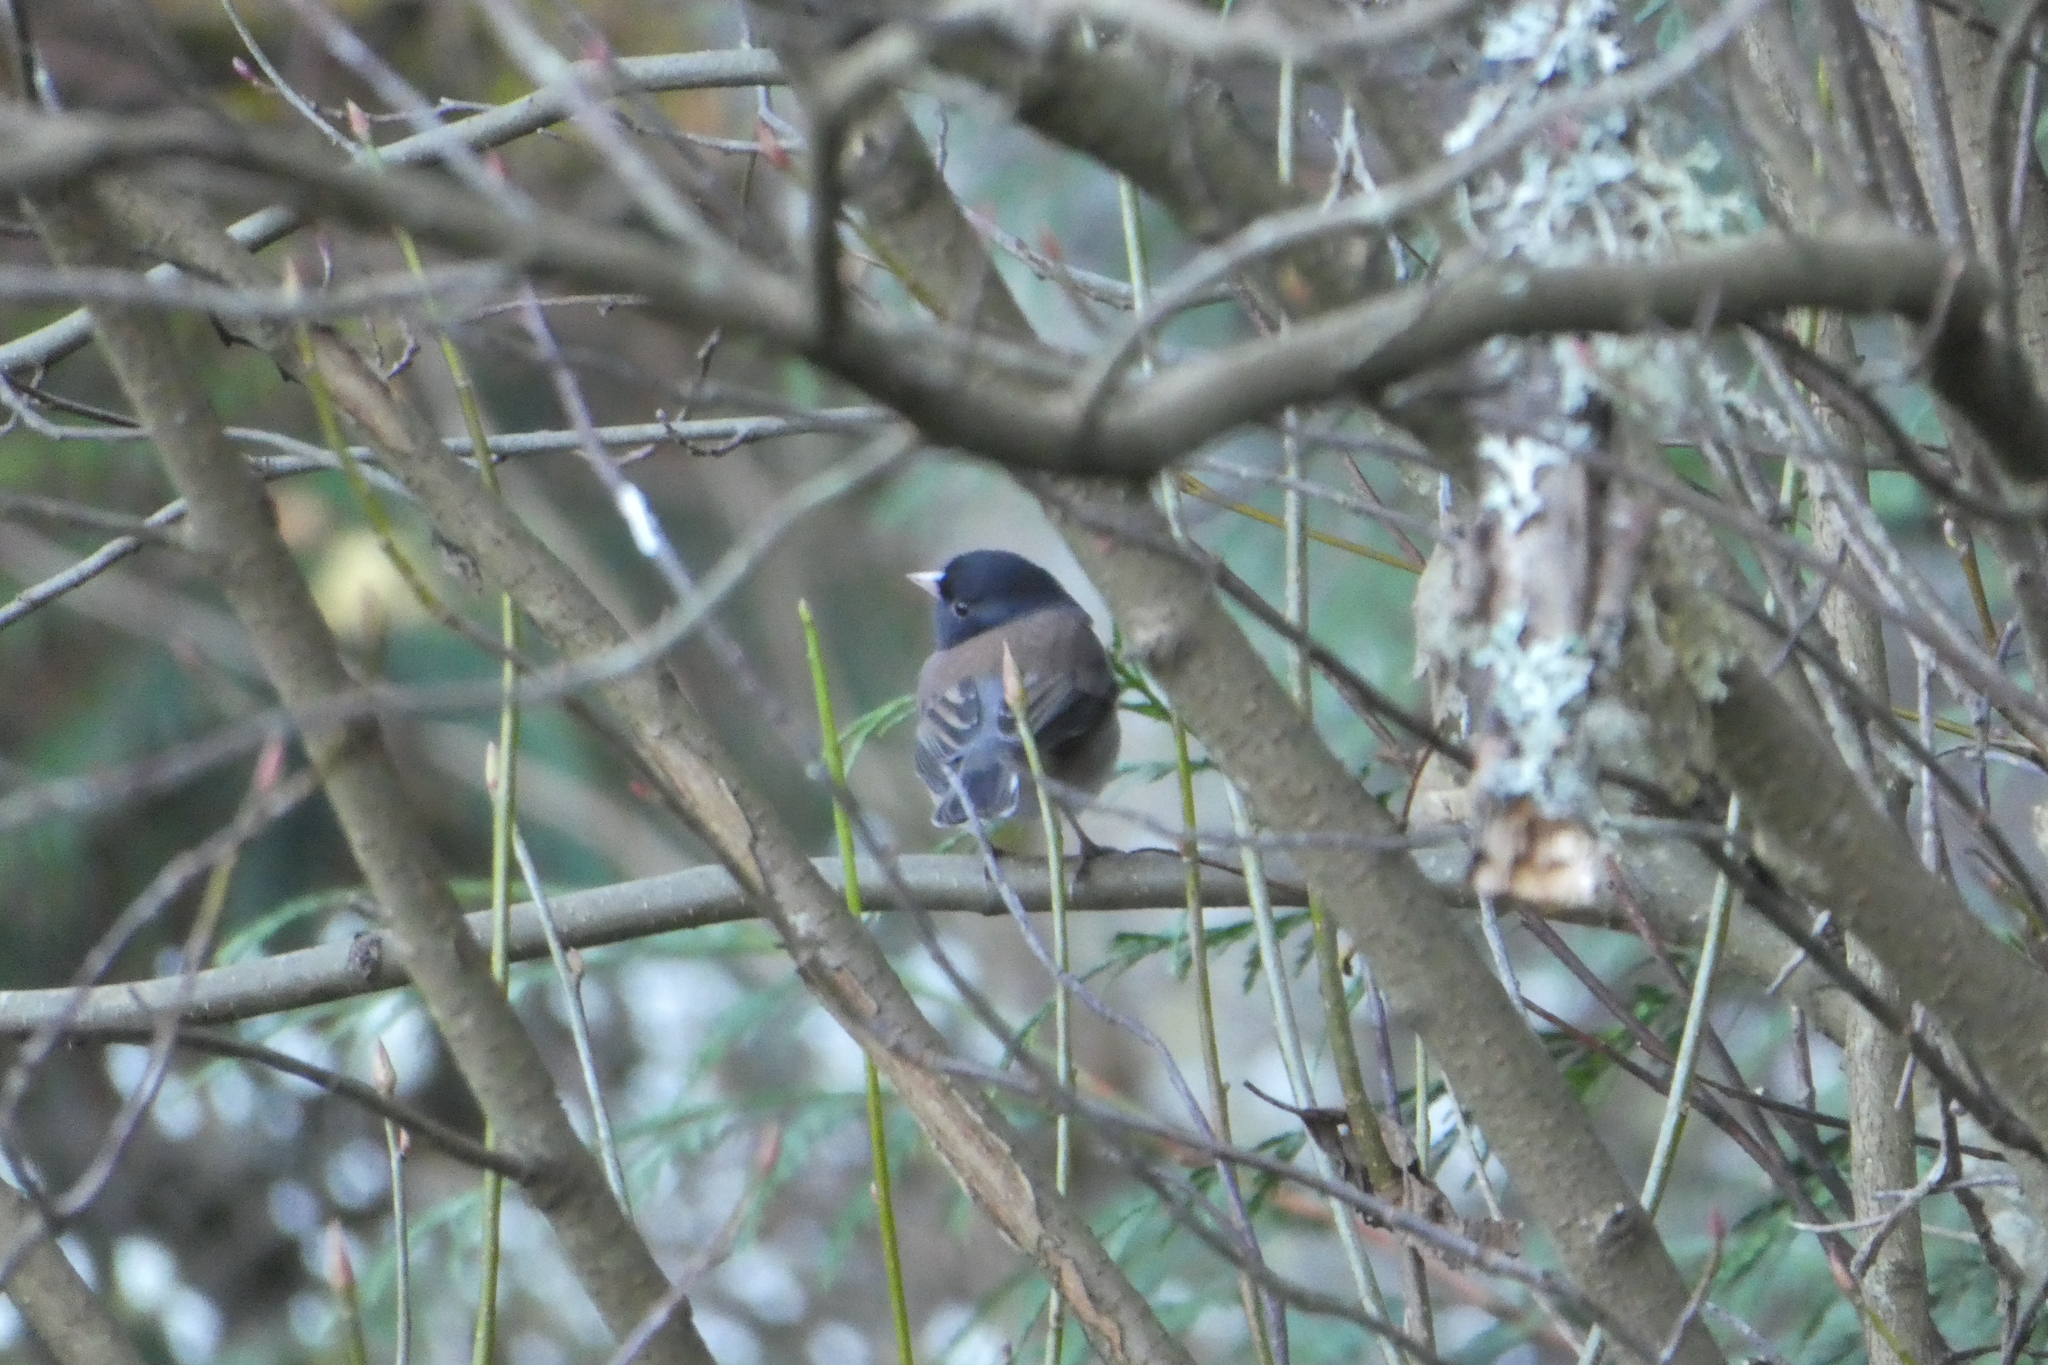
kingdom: Animalia
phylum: Chordata
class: Aves
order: Passeriformes
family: Passerellidae
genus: Junco
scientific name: Junco hyemalis
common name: Dark-eyed junco
